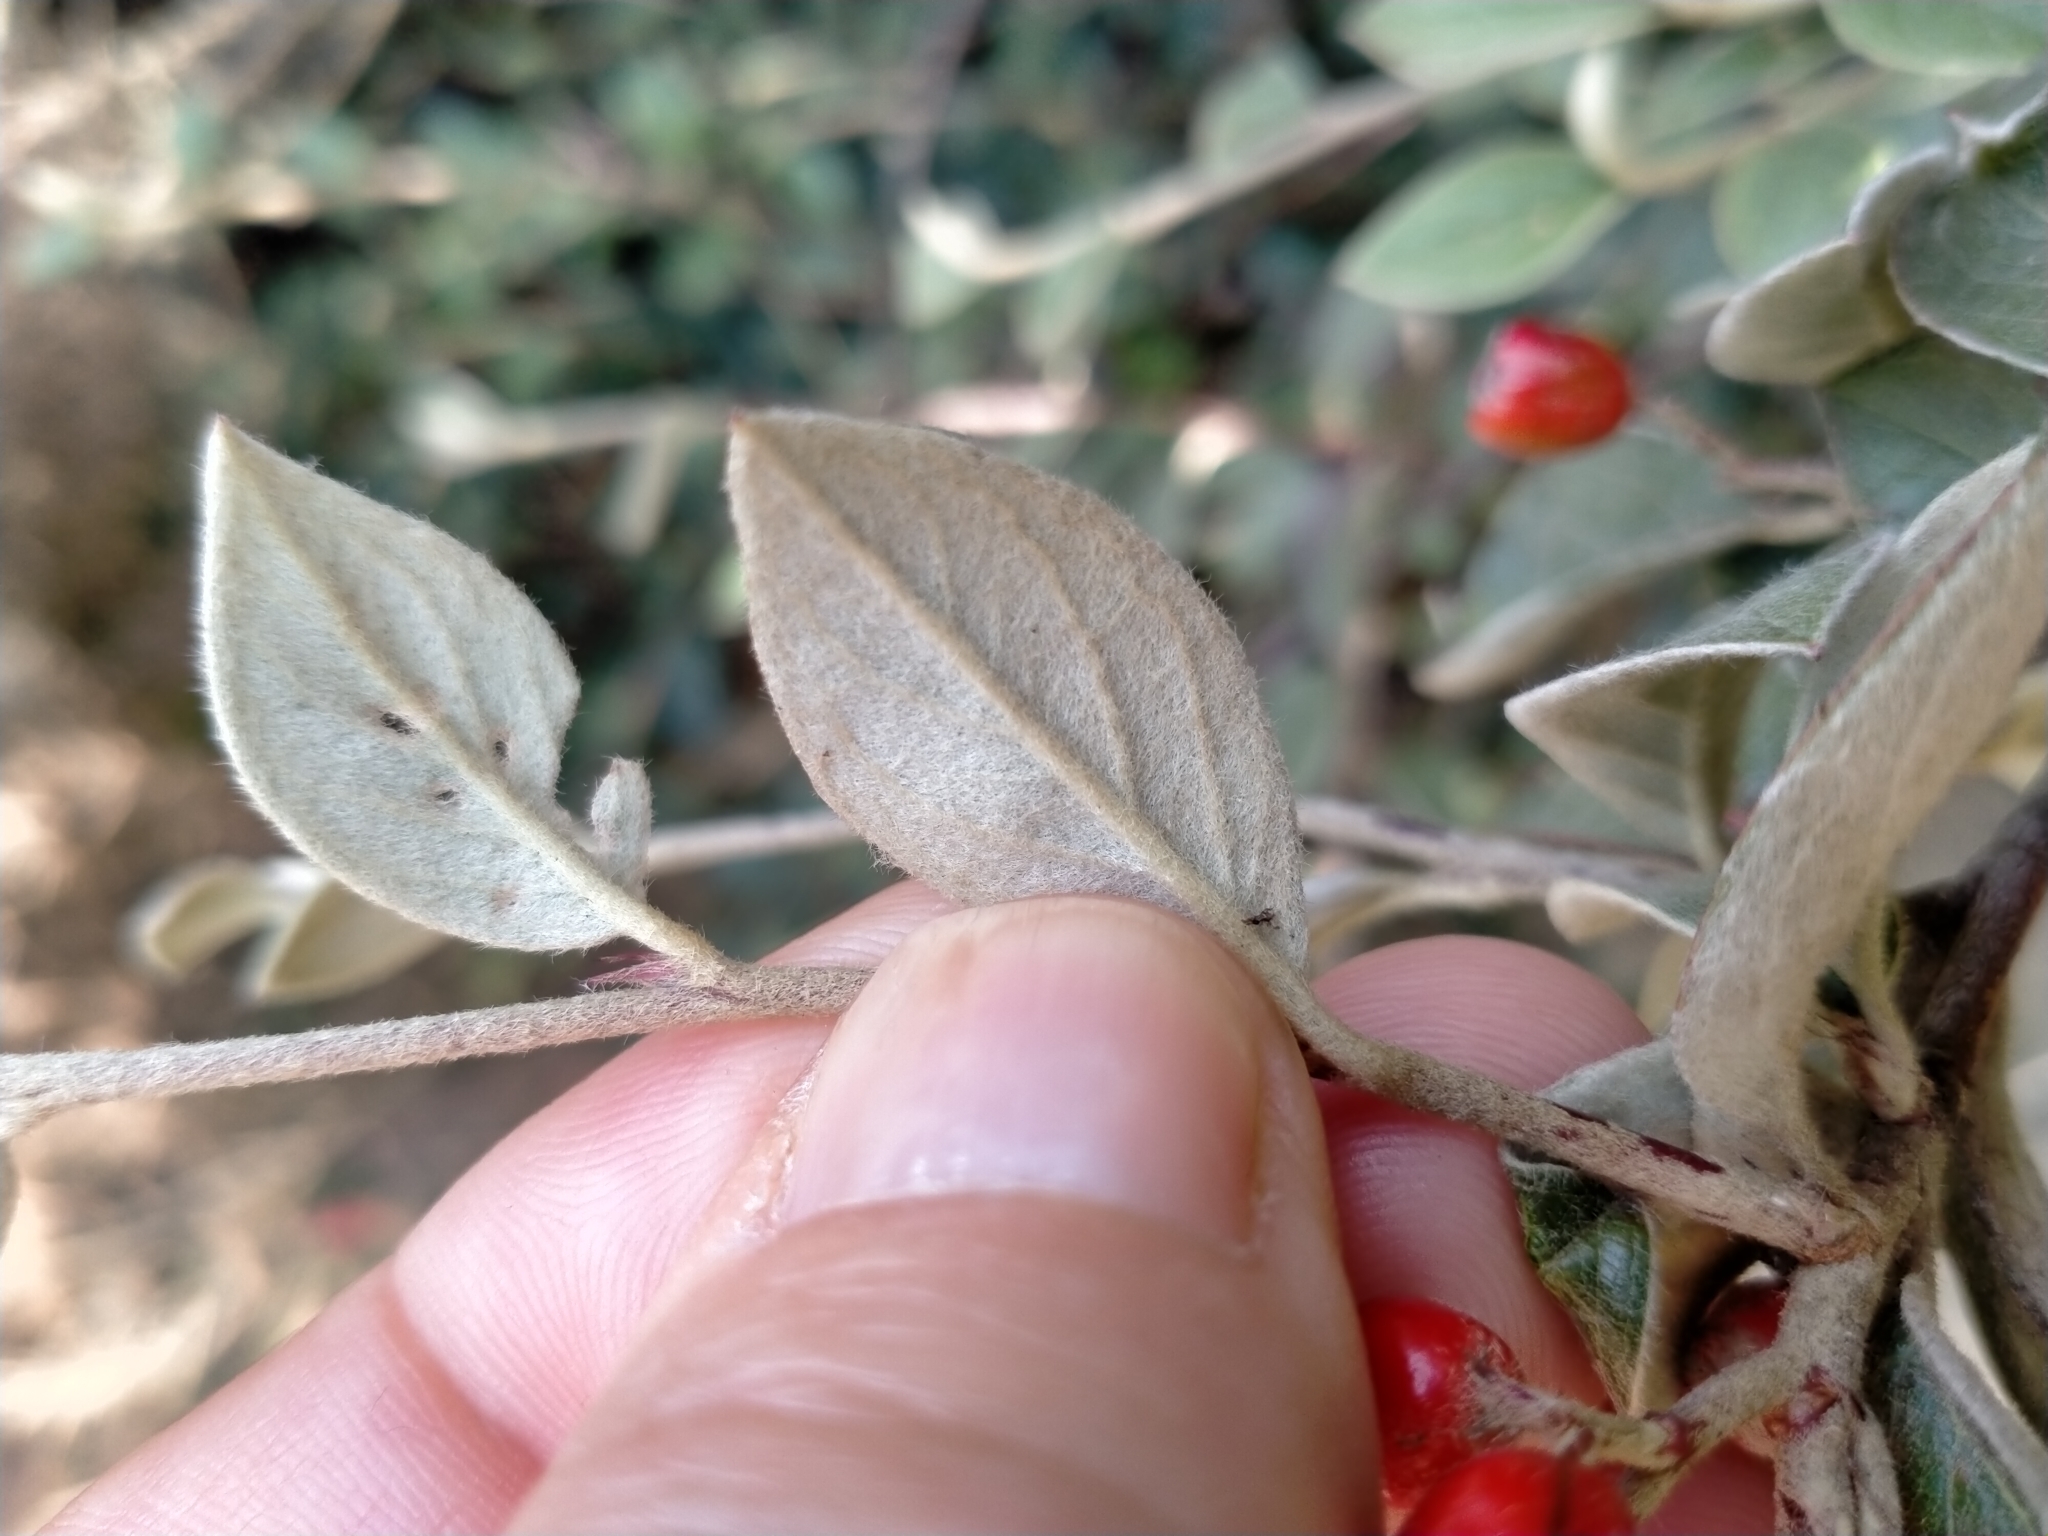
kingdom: Plantae
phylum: Tracheophyta
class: Magnoliopsida
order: Rosales
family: Rosaceae
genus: Cotoneaster
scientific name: Cotoneaster franchetii
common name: Franchet's cotoneaster
